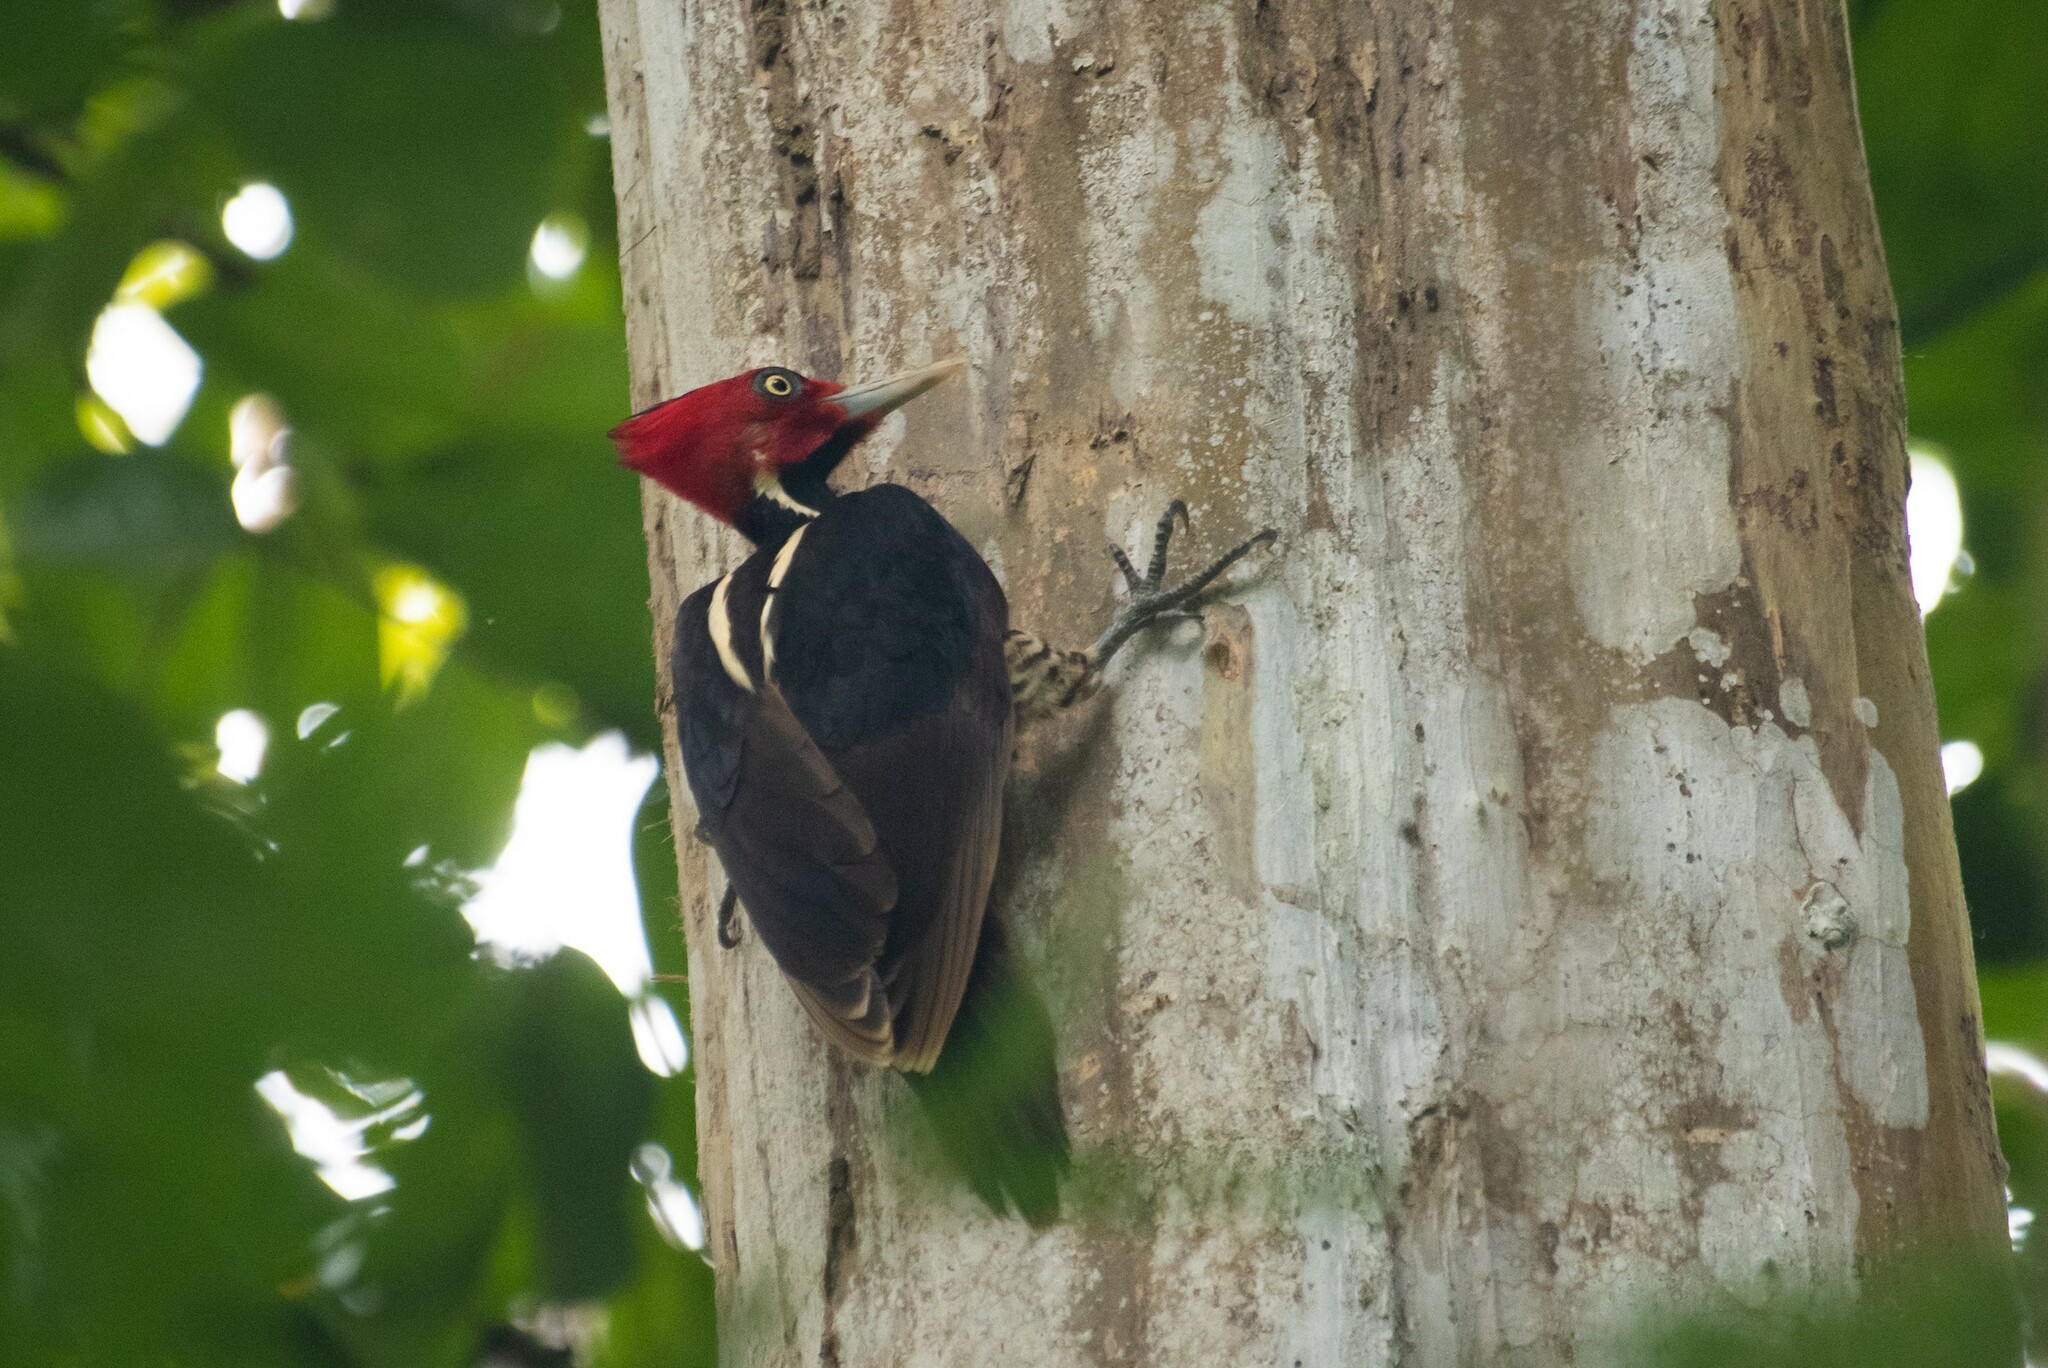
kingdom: Animalia
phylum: Chordata
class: Aves
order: Piciformes
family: Picidae
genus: Campephilus
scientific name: Campephilus guatemalensis
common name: Pale-billed woodpecker
